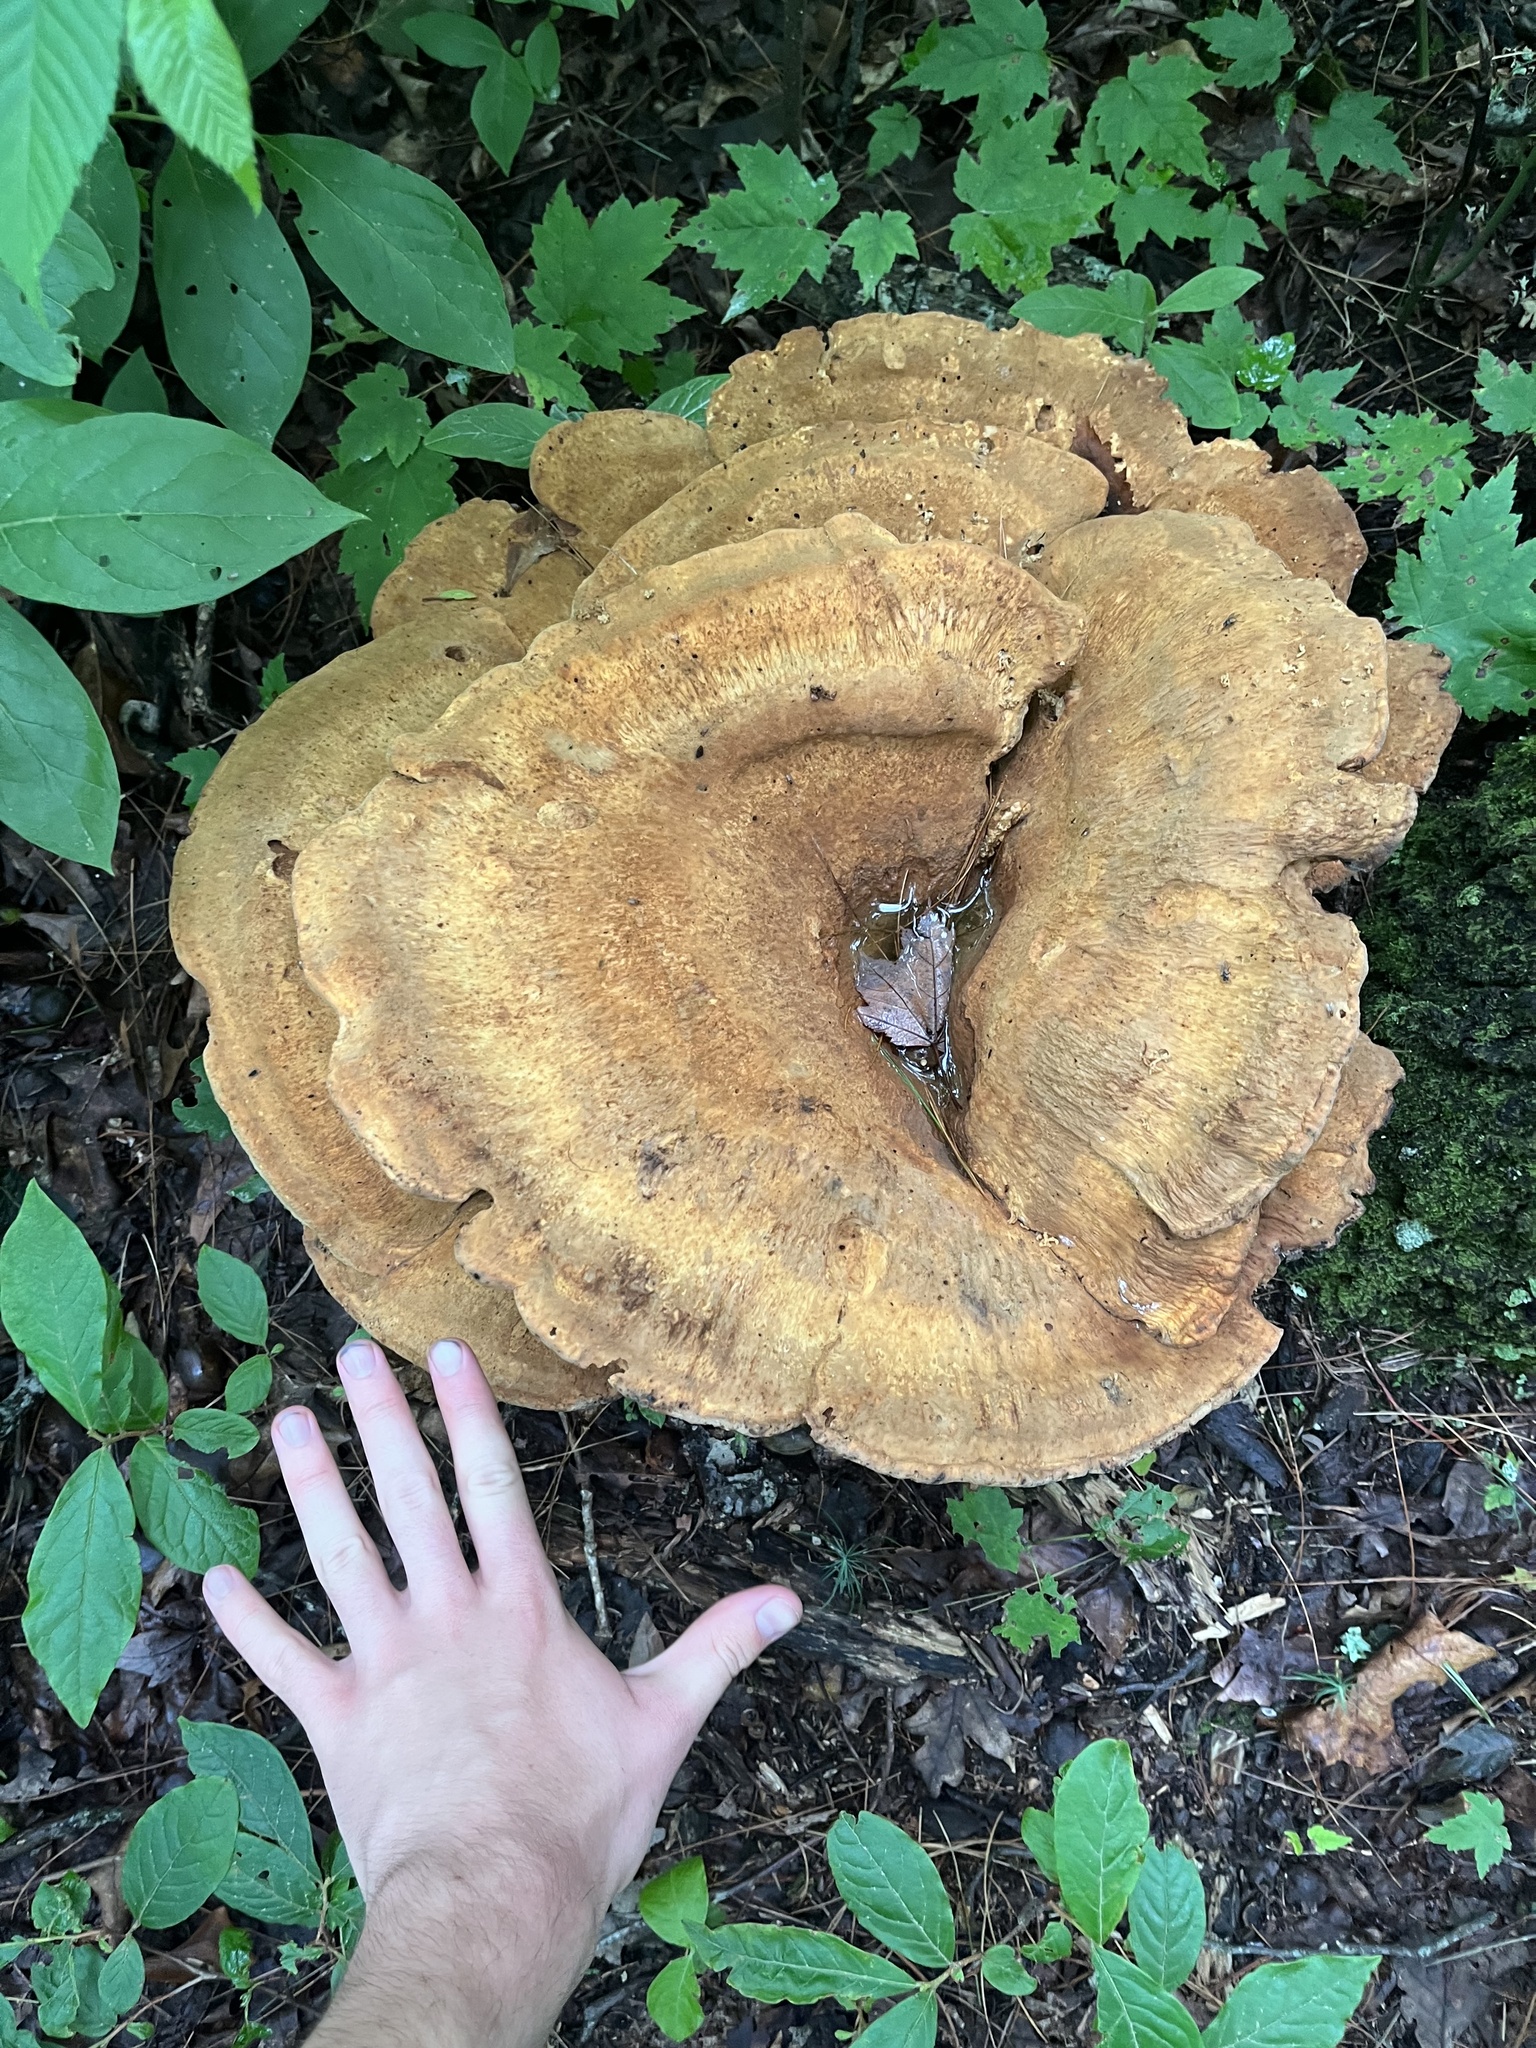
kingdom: Fungi
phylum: Basidiomycota
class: Agaricomycetes
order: Russulales
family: Bondarzewiaceae
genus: Bondarzewia
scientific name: Bondarzewia berkeleyi
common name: Berkeley's polypore
